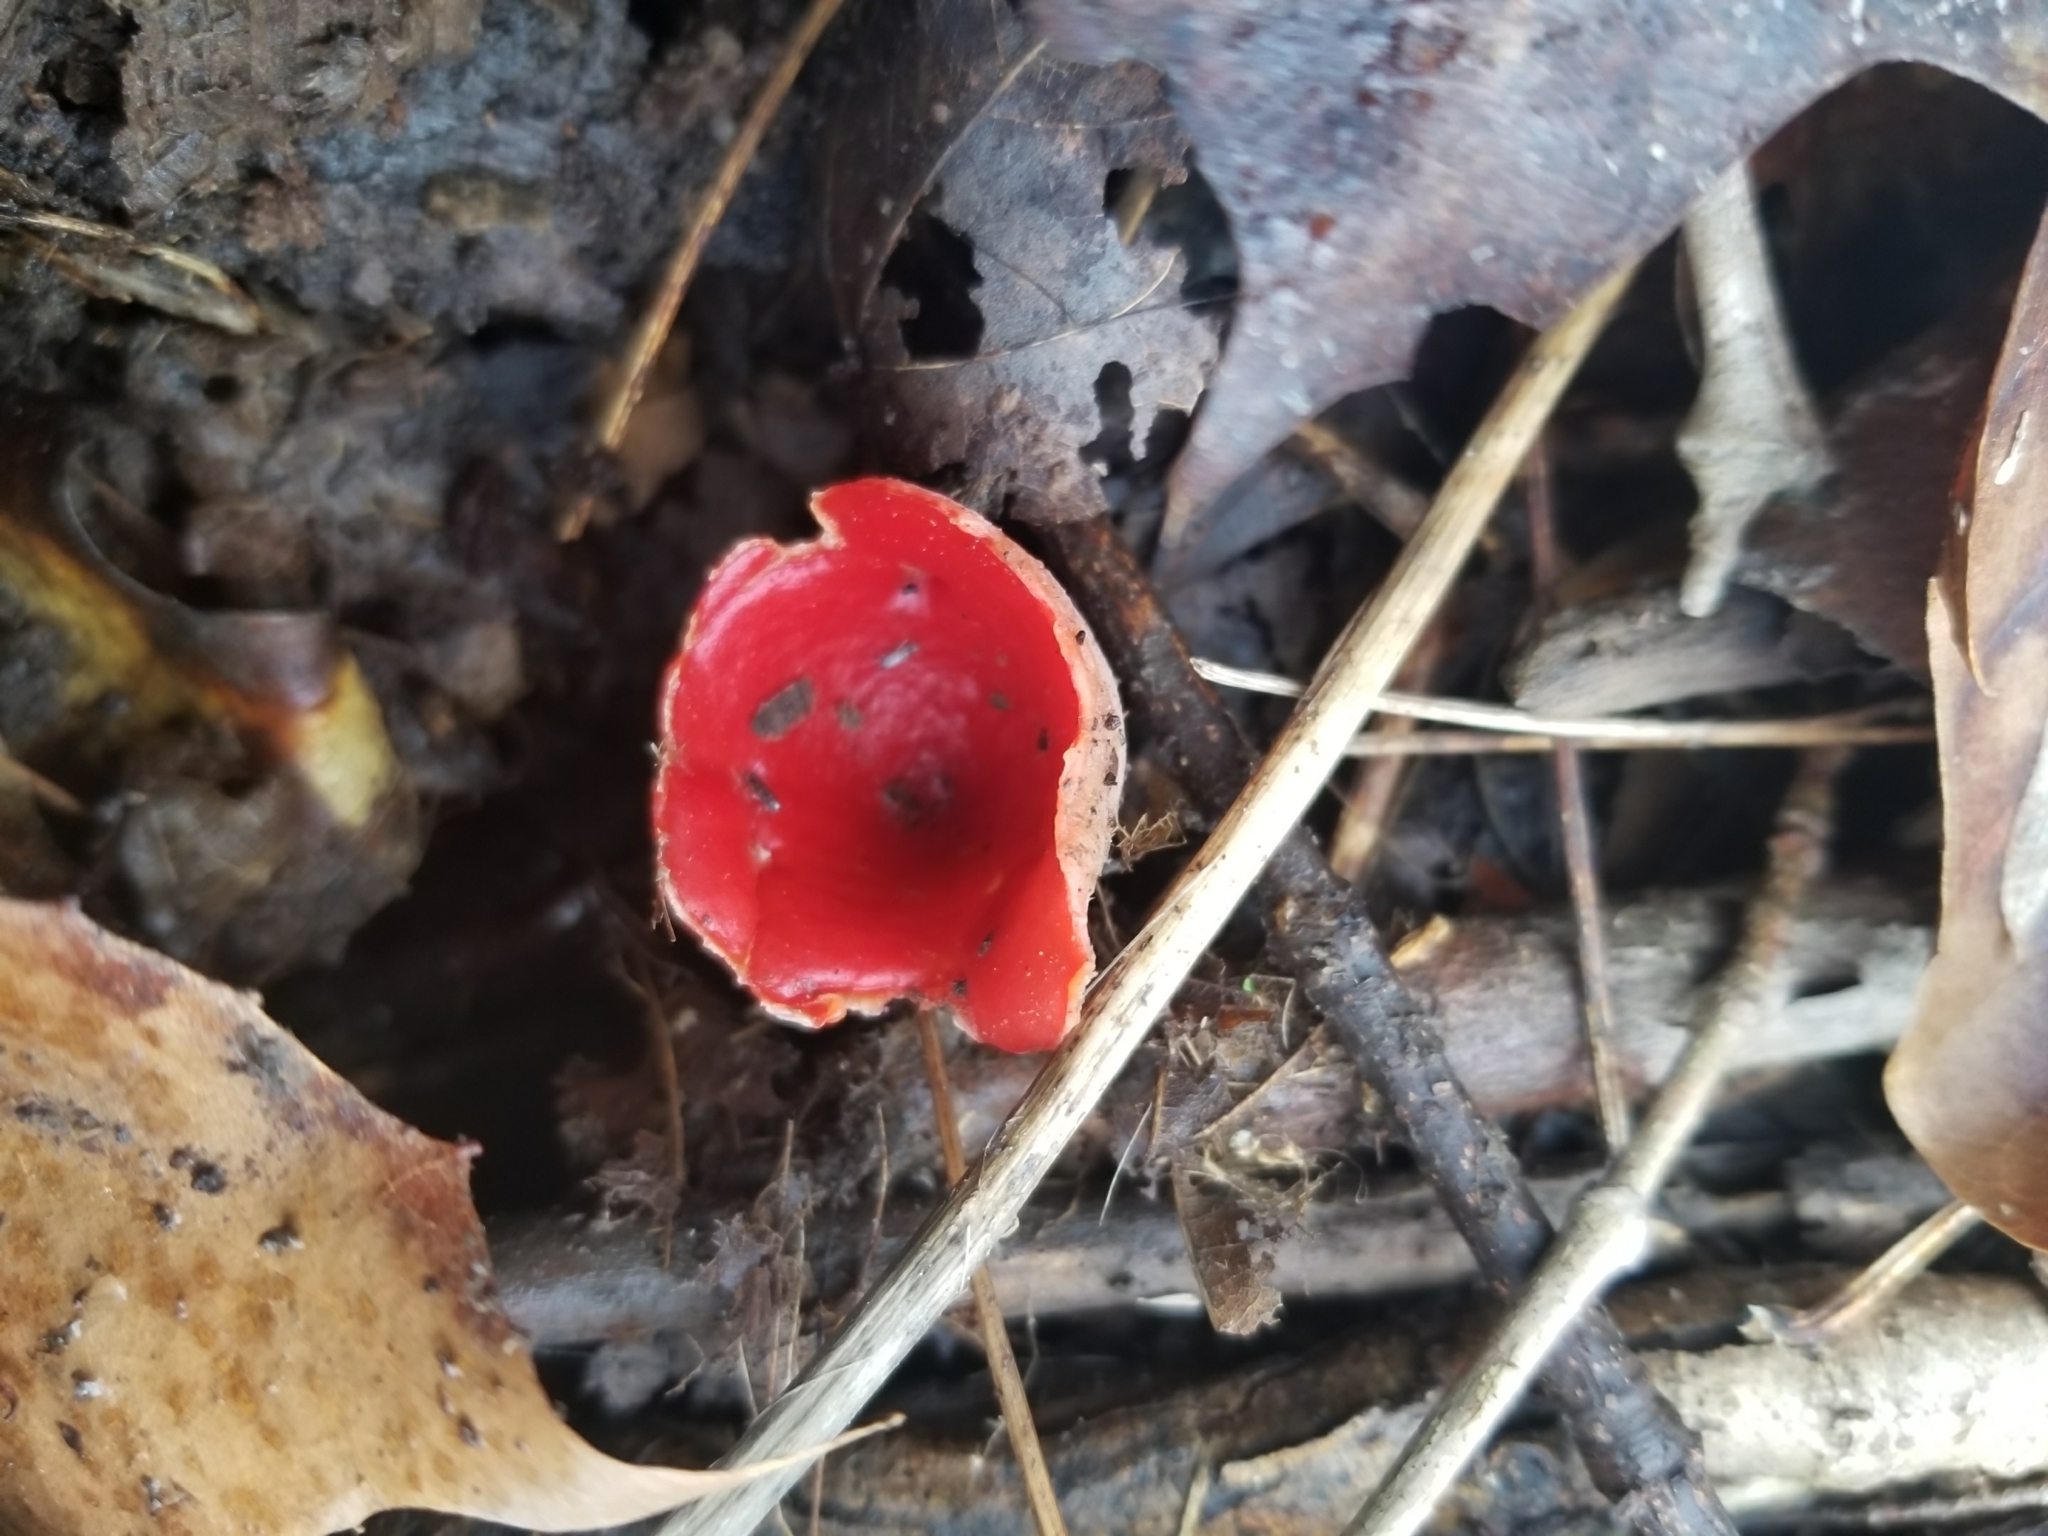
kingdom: Fungi
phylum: Ascomycota
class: Pezizomycetes
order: Pezizales
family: Sarcoscyphaceae
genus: Sarcoscypha
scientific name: Sarcoscypha austriaca
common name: Scarlet elfcup
